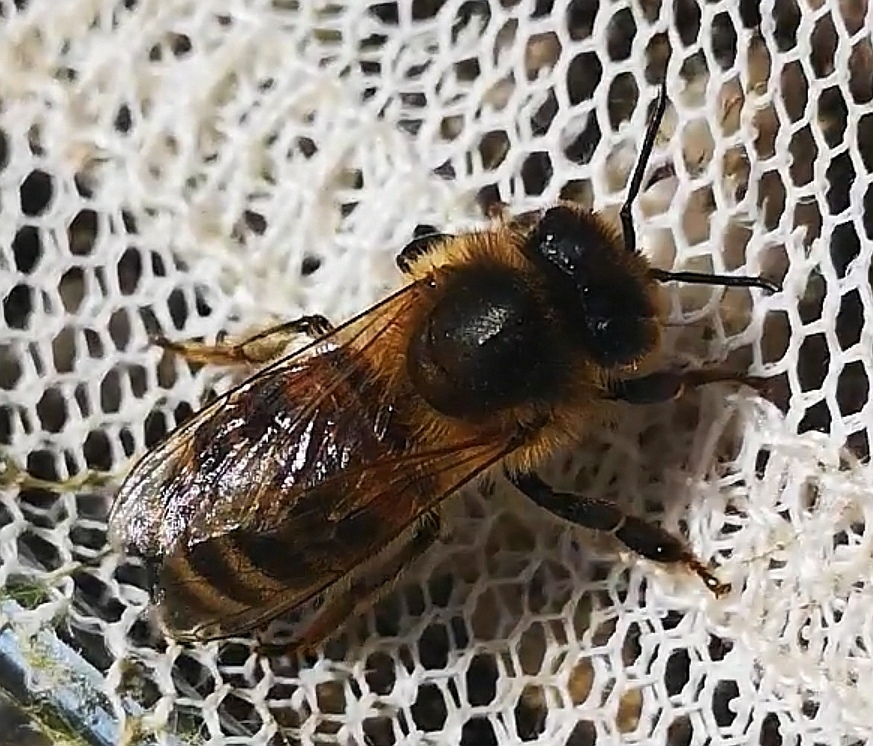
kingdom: Animalia
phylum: Arthropoda
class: Insecta
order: Hymenoptera
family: Apidae
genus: Apis
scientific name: Apis mellifera
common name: Honey bee
